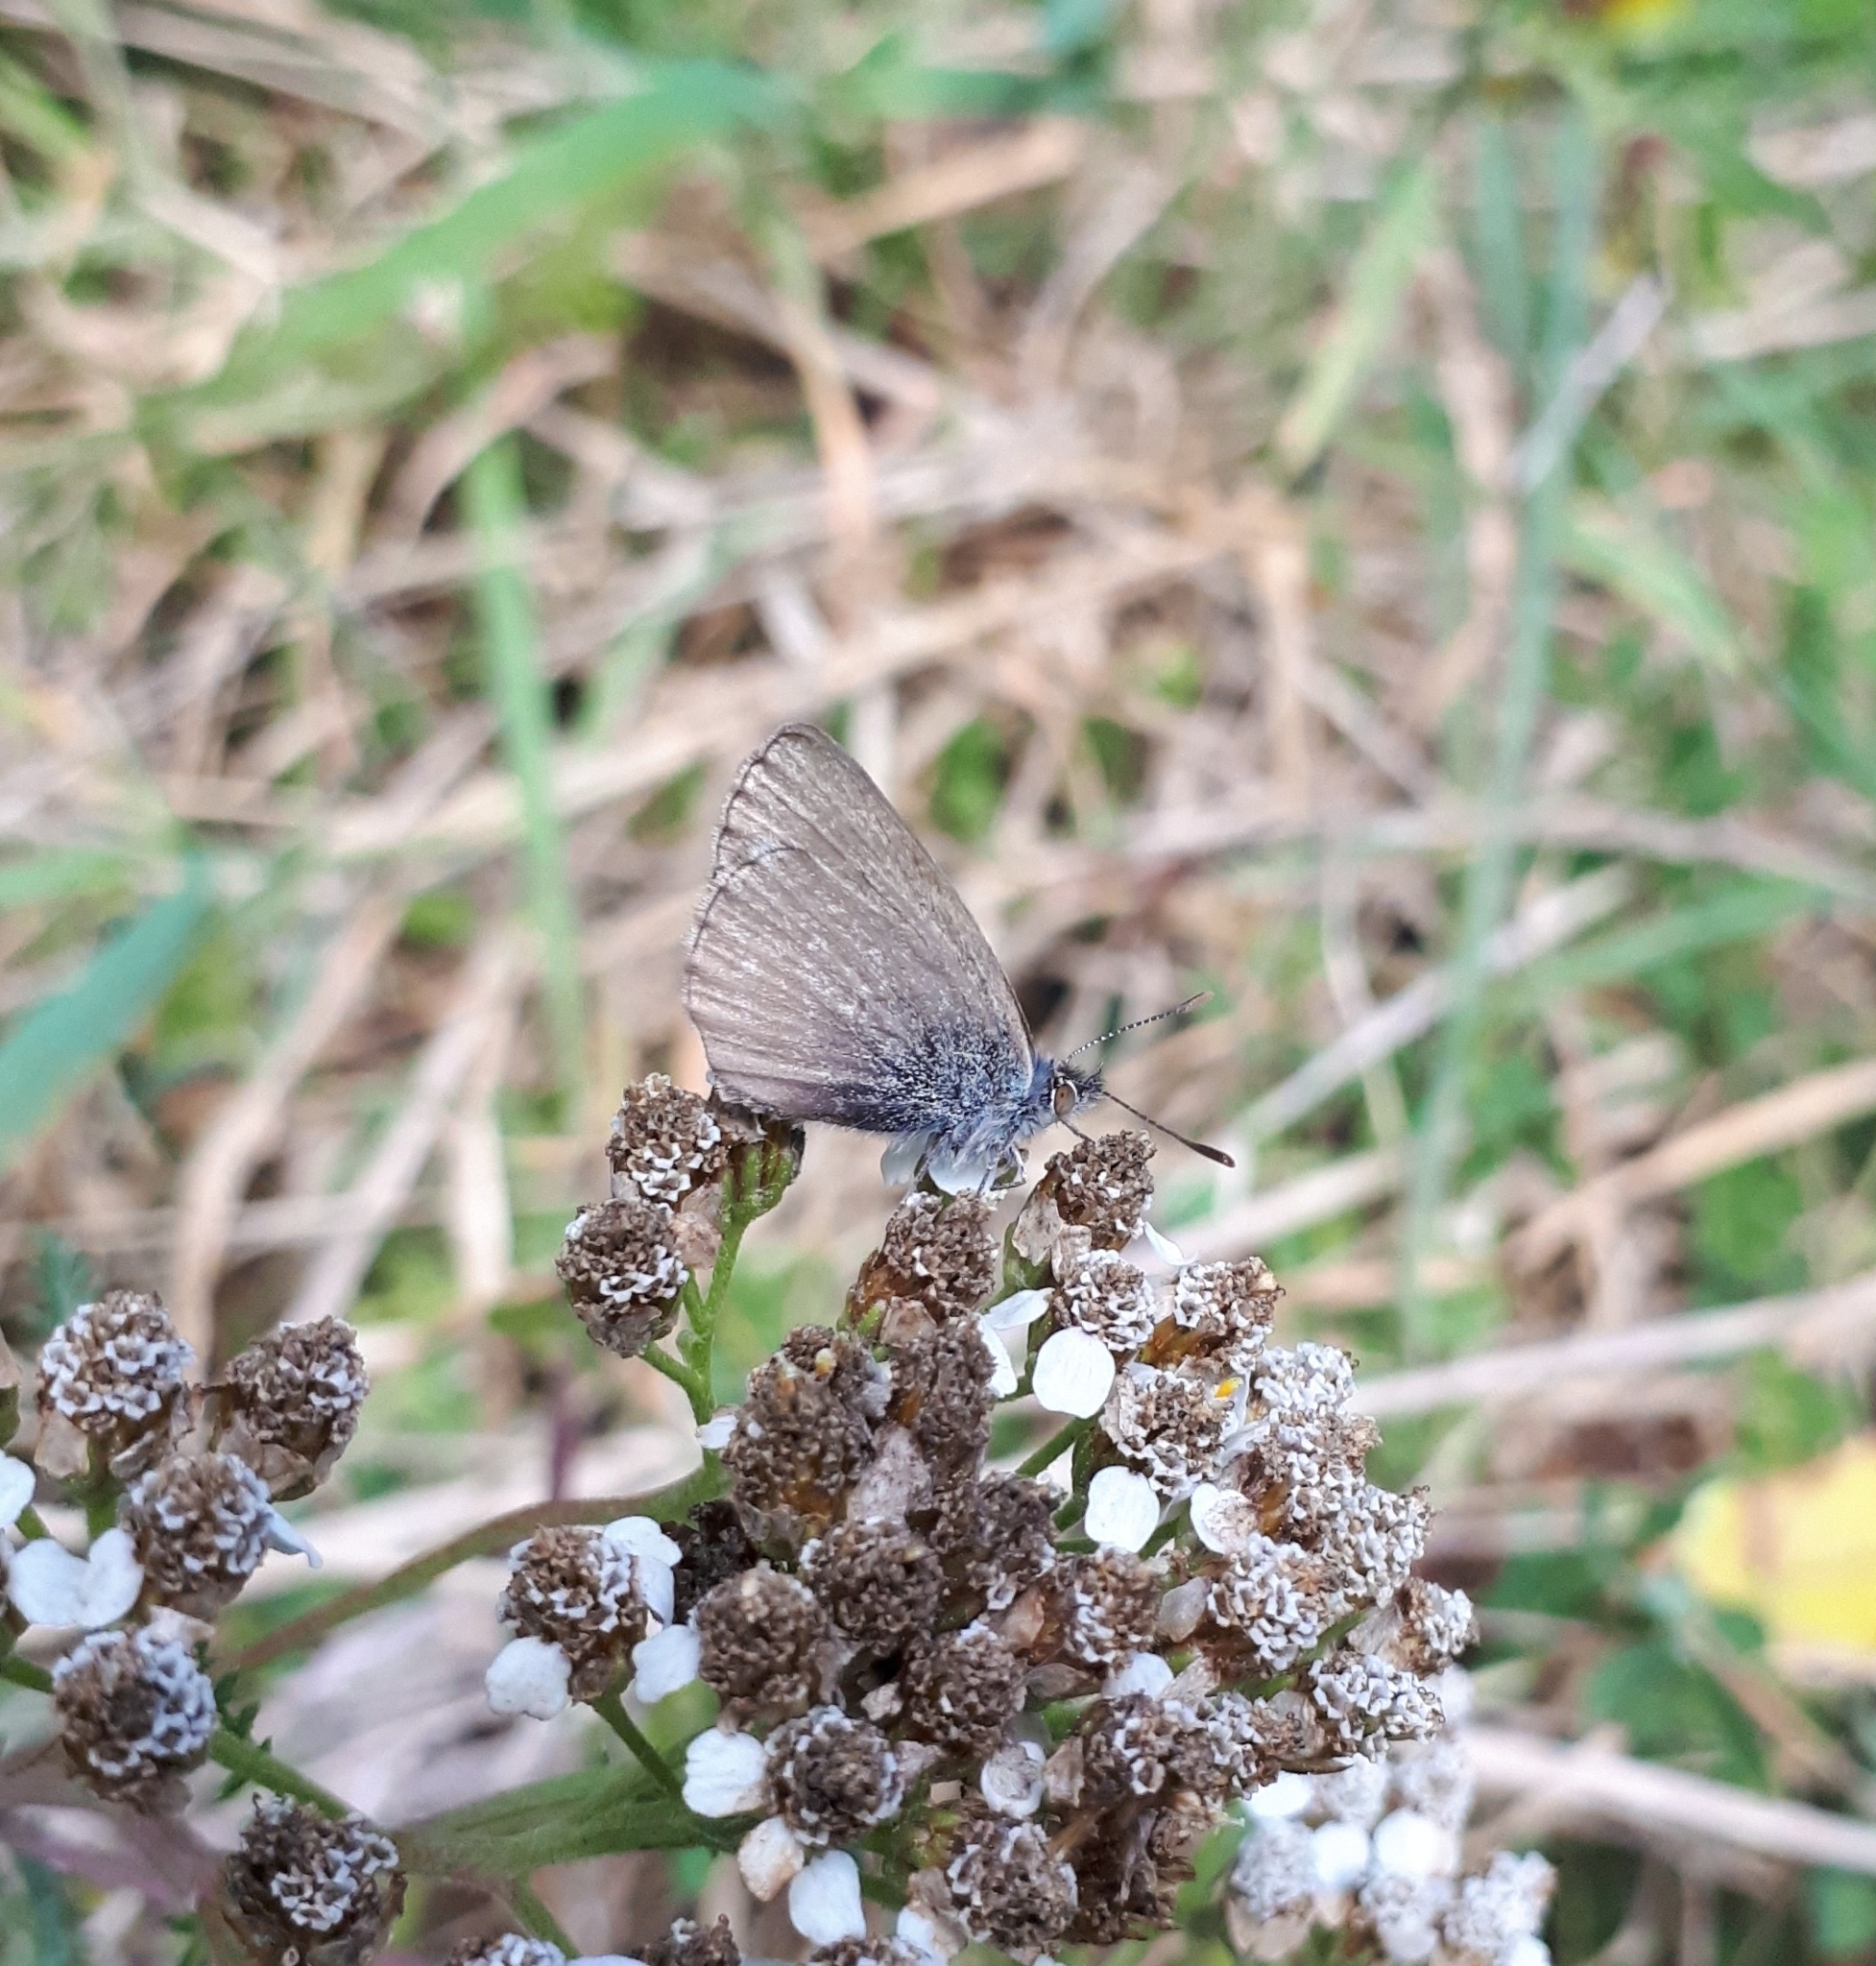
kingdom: Animalia
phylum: Arthropoda
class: Insecta
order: Lepidoptera
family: Lycaenidae
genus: Zizina
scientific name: Zizina labradus
